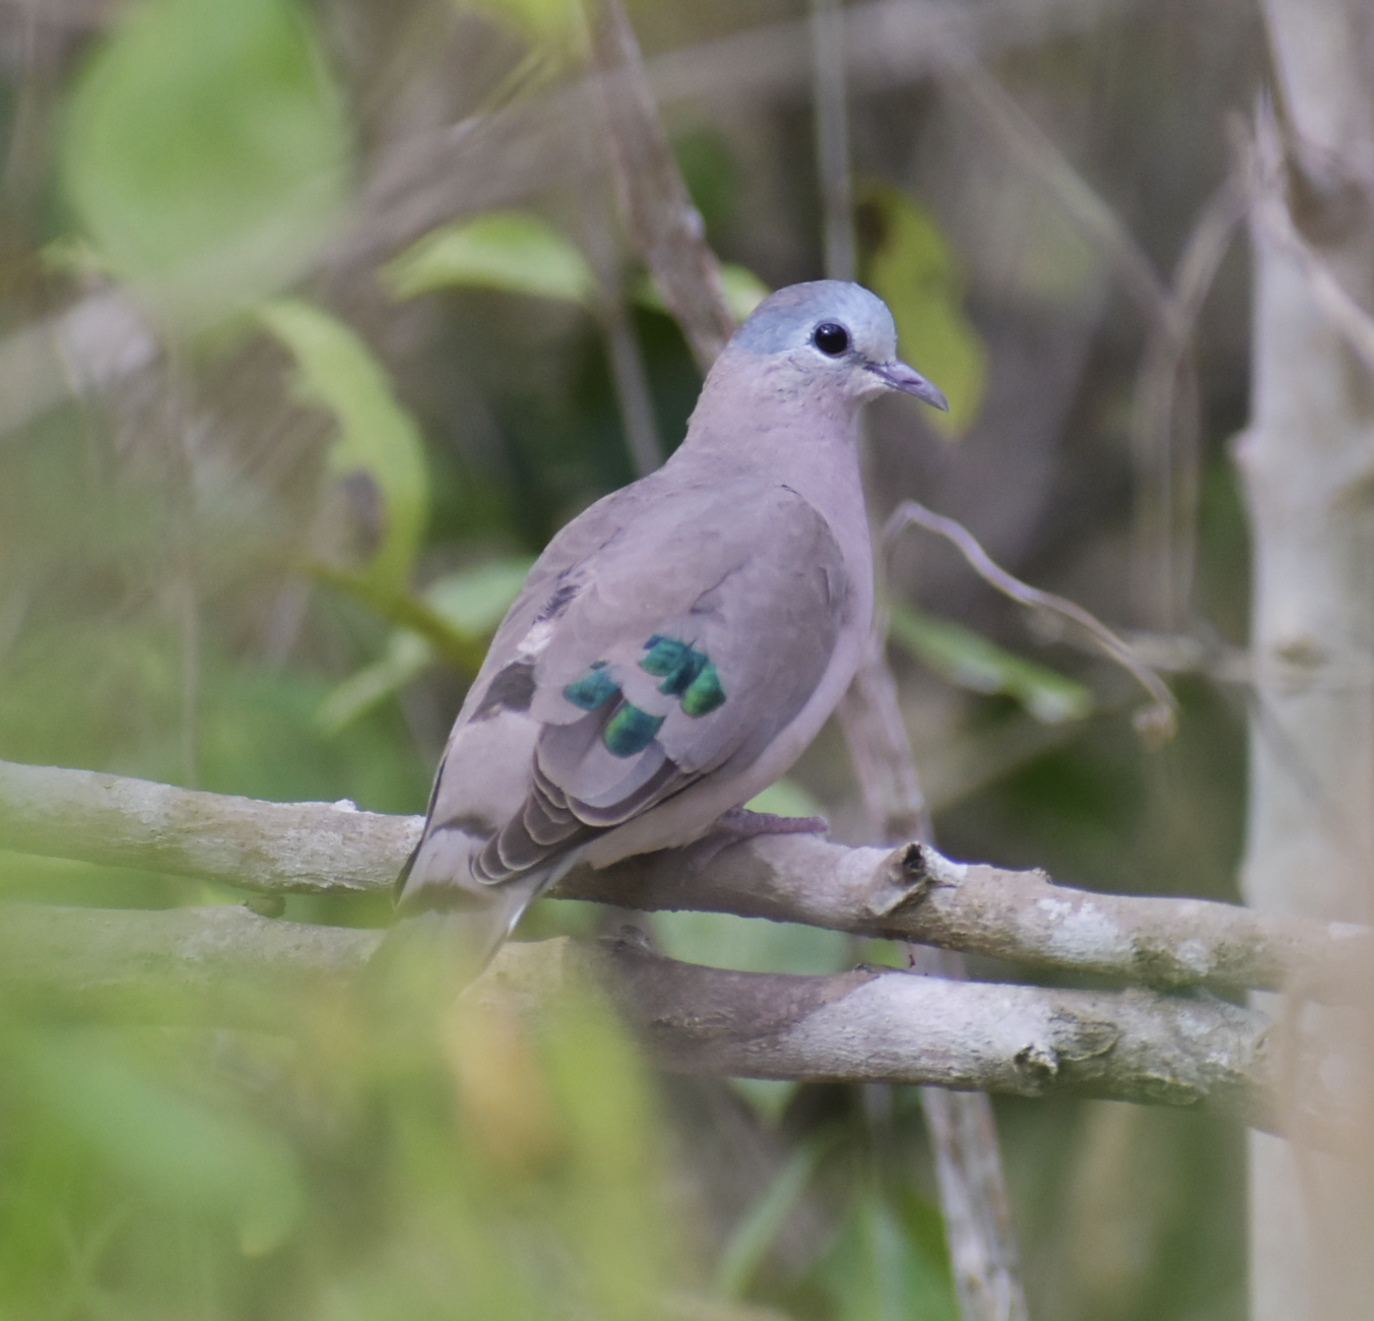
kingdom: Animalia
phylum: Chordata
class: Aves
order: Columbiformes
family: Columbidae
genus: Turtur
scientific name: Turtur chalcospilos
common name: Emerald-spotted wood dove
